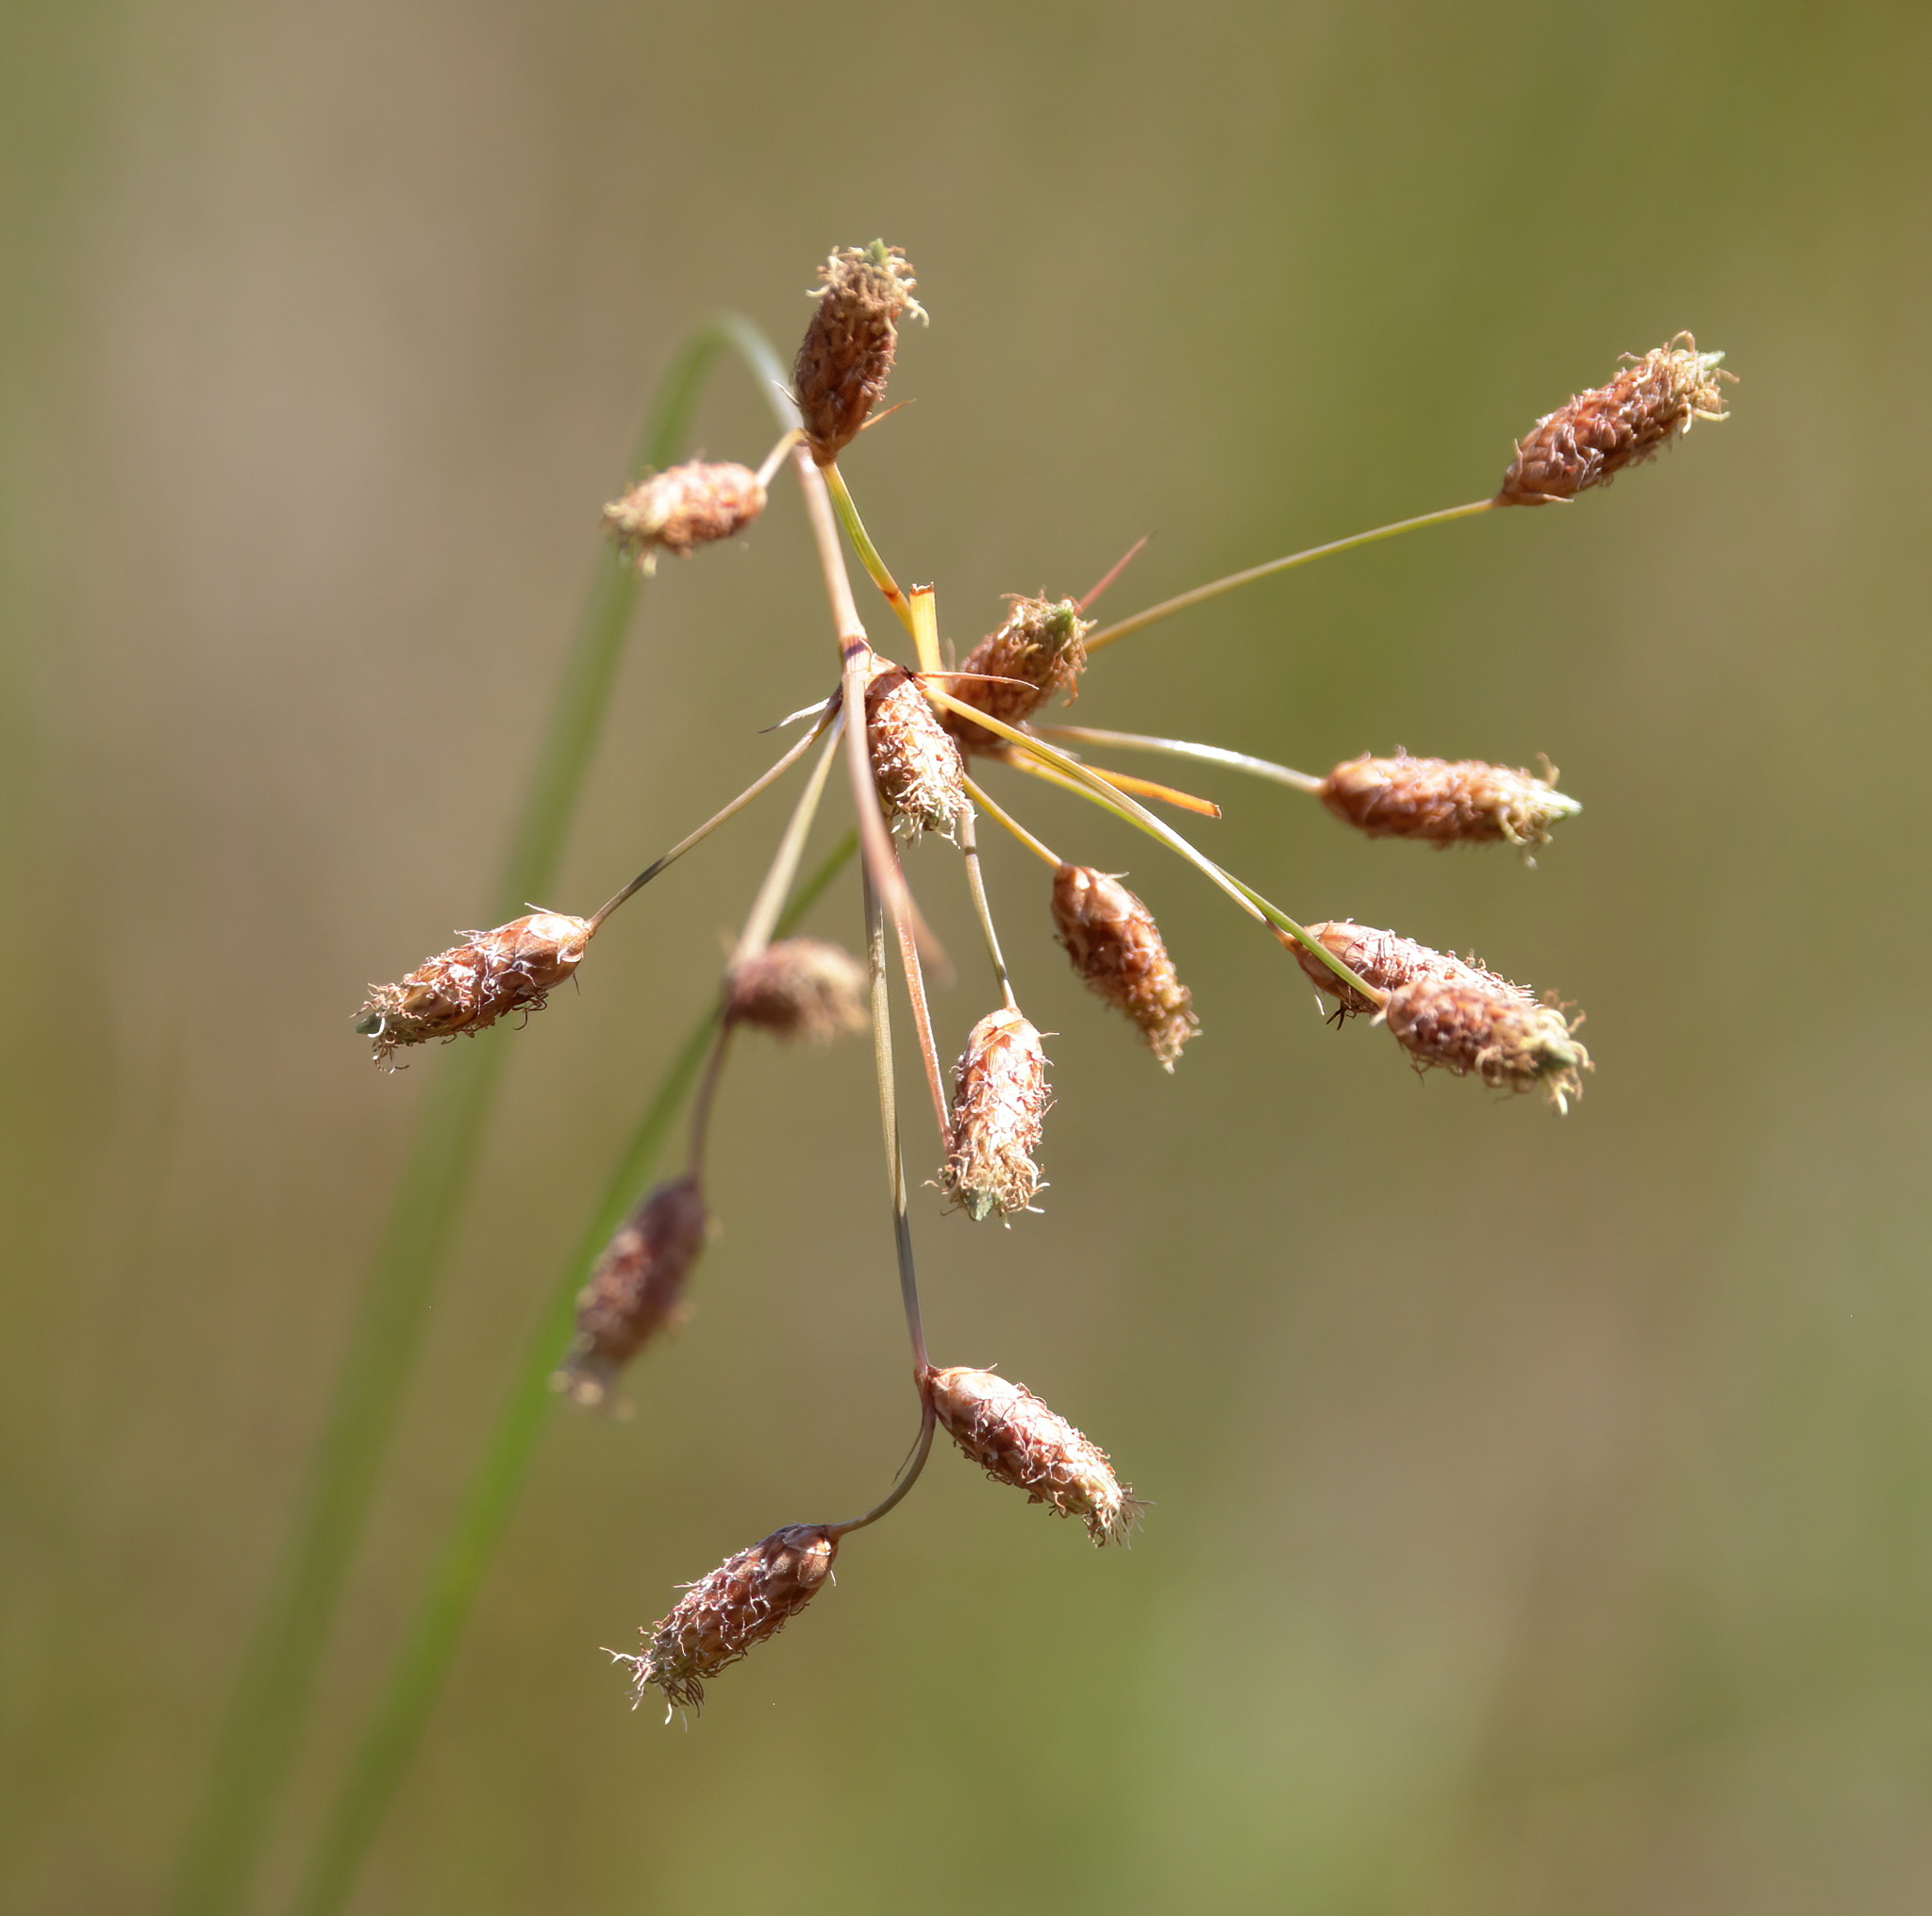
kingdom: Plantae
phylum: Tracheophyta
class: Liliopsida
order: Poales
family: Cyperaceae
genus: Fimbristylis
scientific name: Fimbristylis spadicea
